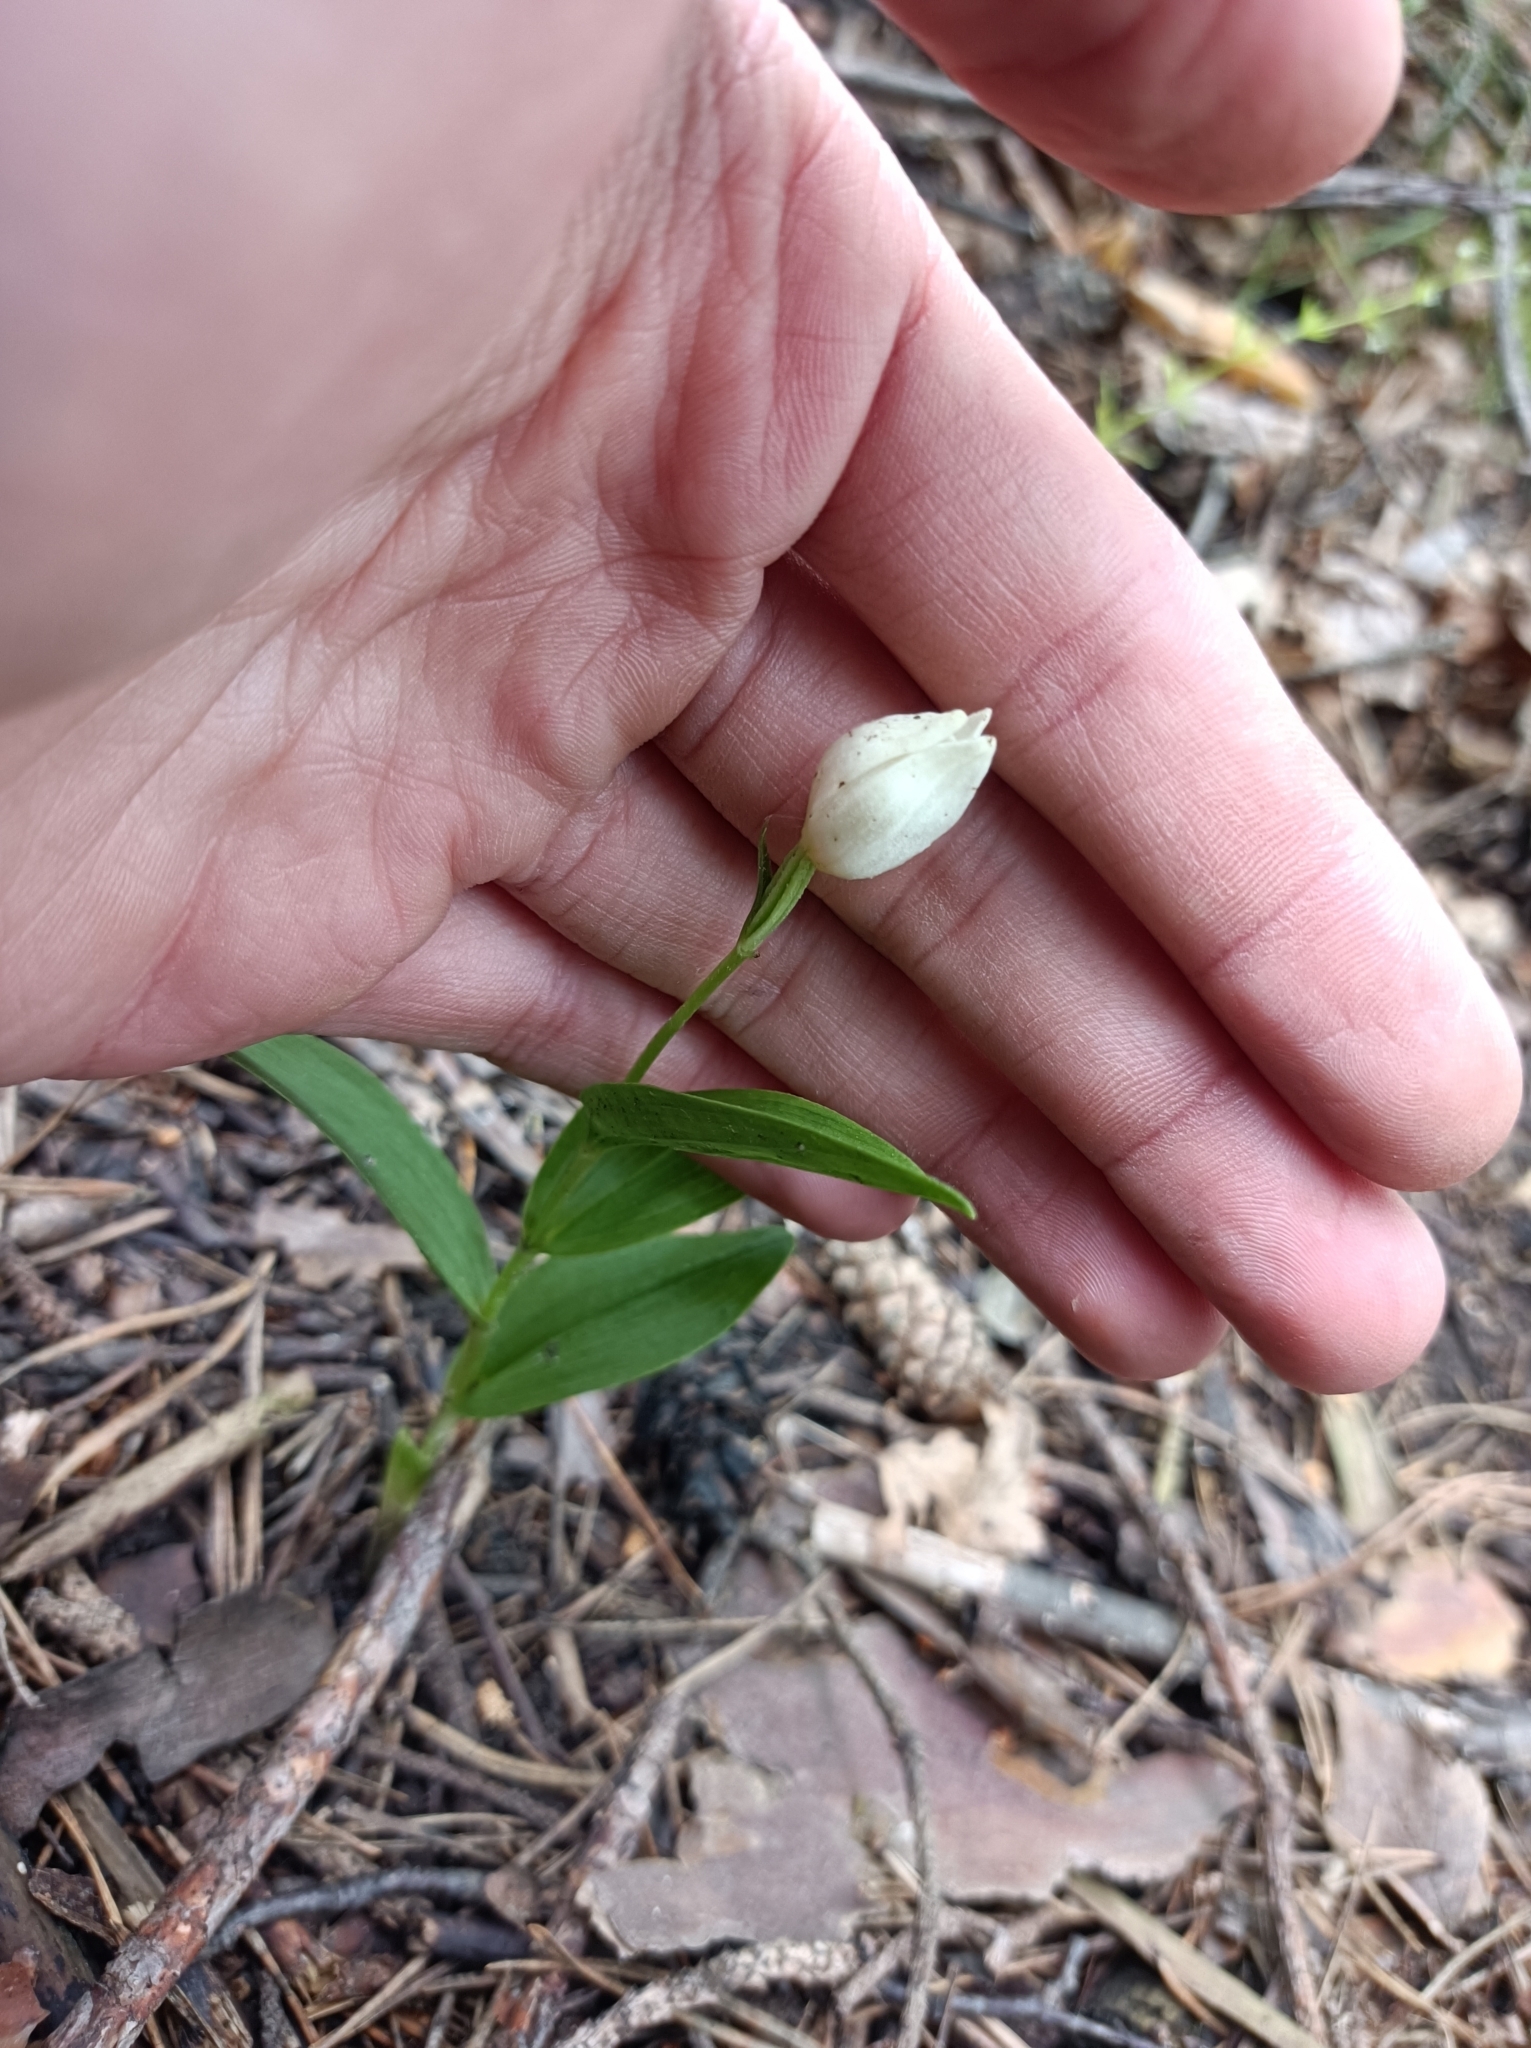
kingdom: Plantae
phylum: Tracheophyta
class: Liliopsida
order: Asparagales
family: Orchidaceae
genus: Cephalanthera
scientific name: Cephalanthera damasonium
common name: White helleborine
